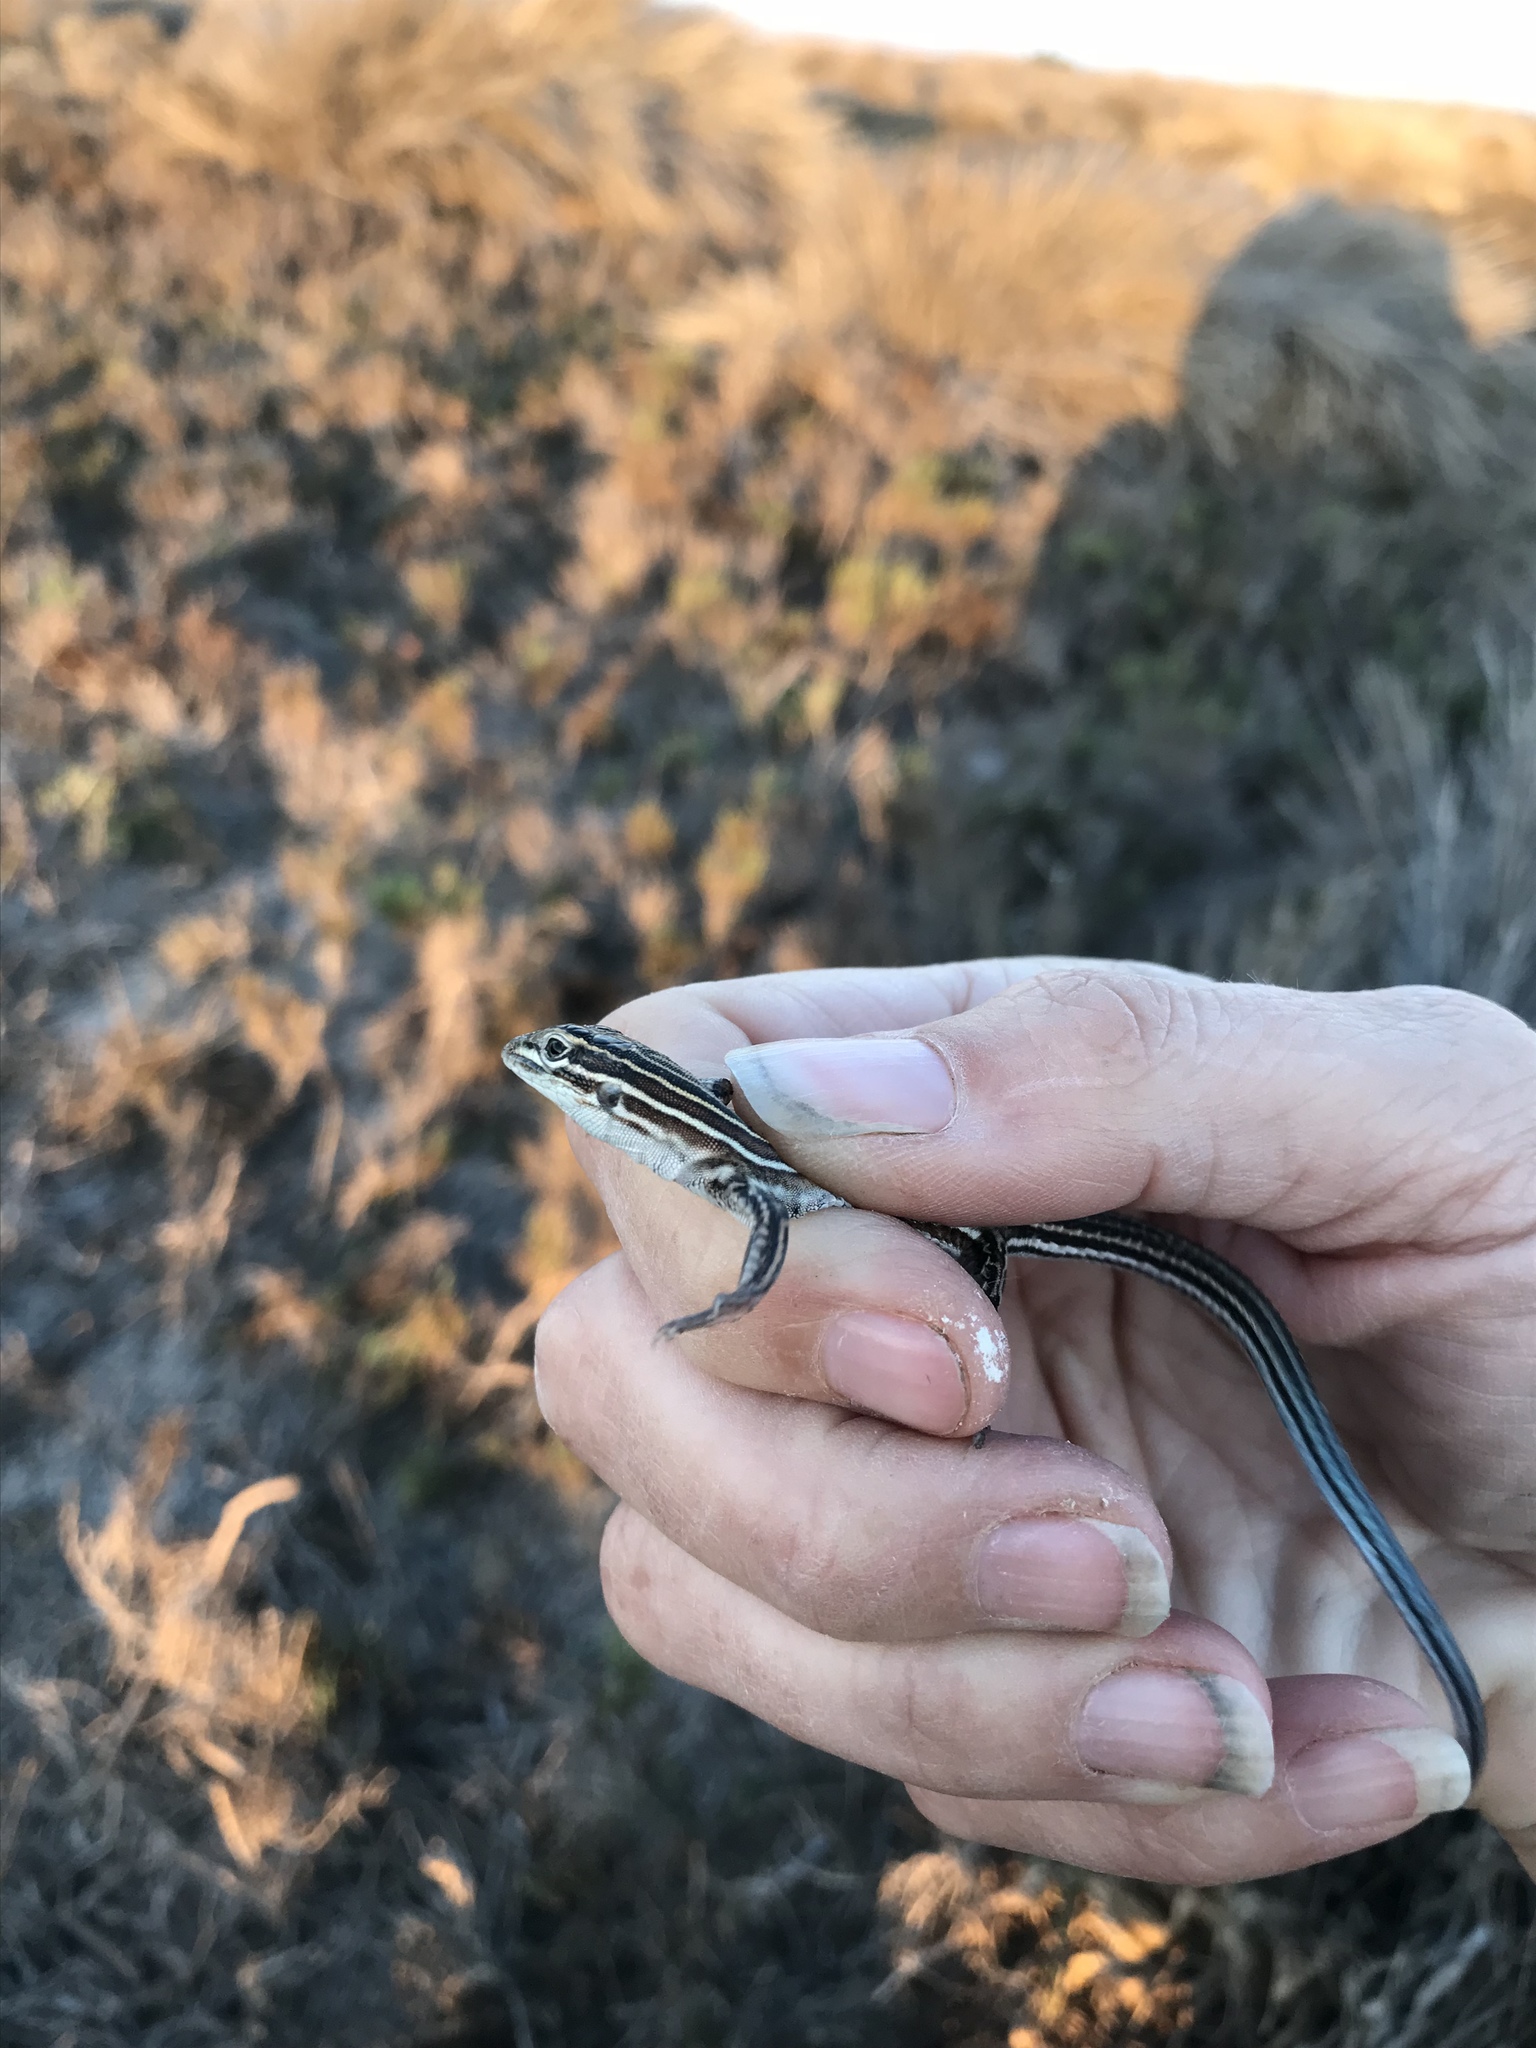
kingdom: Animalia
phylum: Chordata
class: Squamata
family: Teiidae
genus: Aspidoscelis
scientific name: Aspidoscelis labialis
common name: Baja california whiptail
